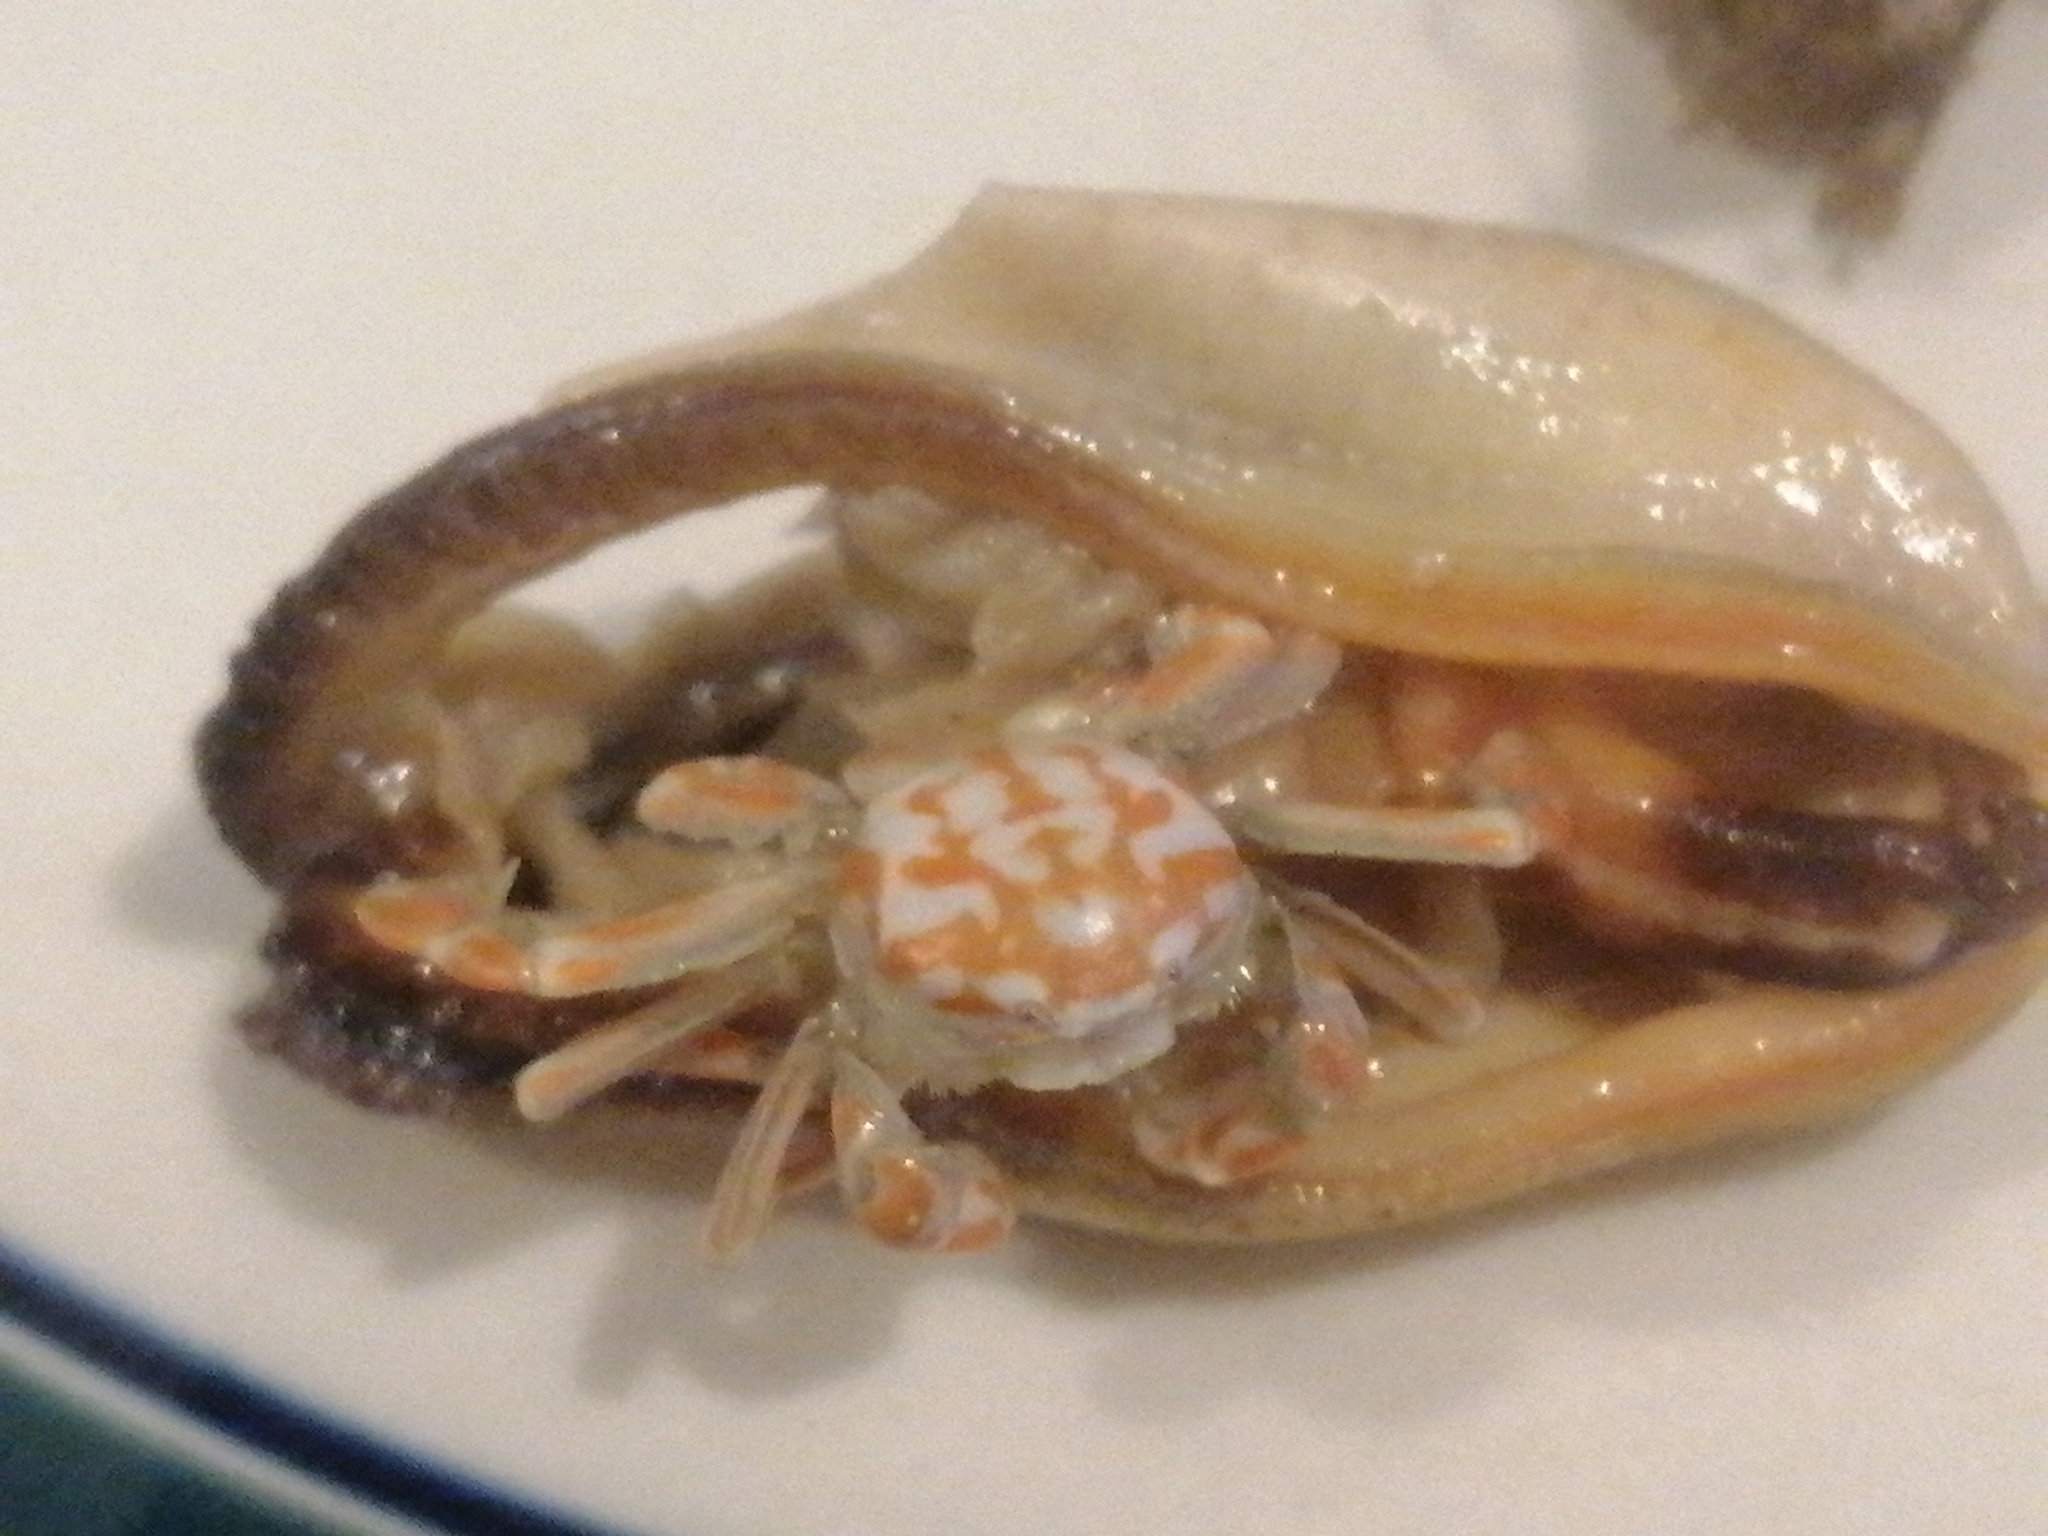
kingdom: Animalia
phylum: Arthropoda
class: Malacostraca
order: Decapoda
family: Pinnotheridae
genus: Nepinnotheres
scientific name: Nepinnotheres novaezelandiae
